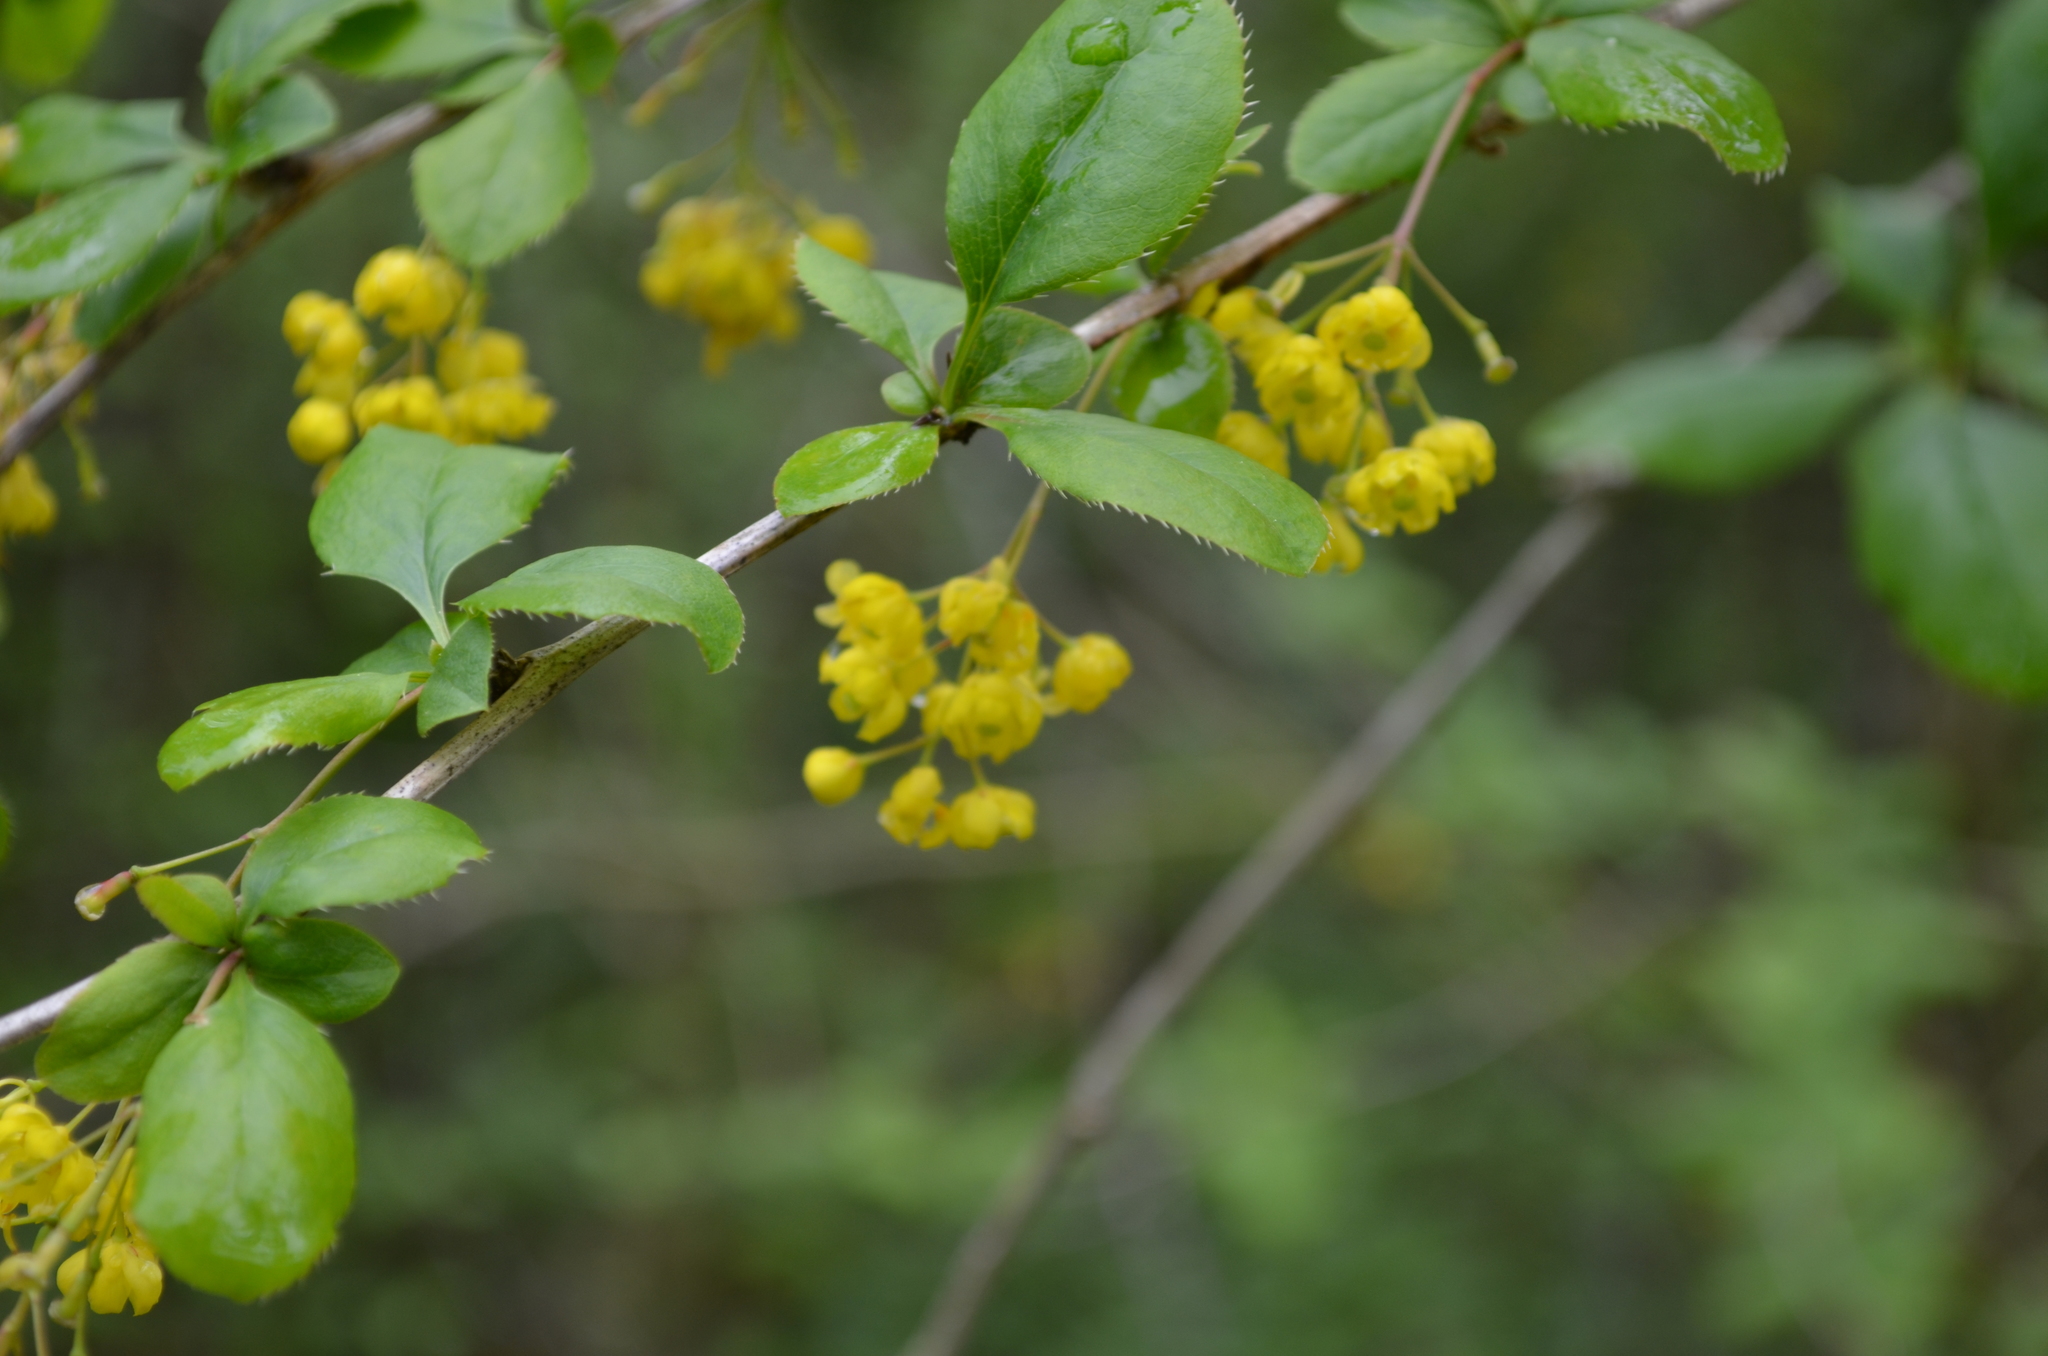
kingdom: Plantae
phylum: Tracheophyta
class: Magnoliopsida
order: Ranunculales
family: Berberidaceae
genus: Berberis
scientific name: Berberis vulgaris
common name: Barberry
